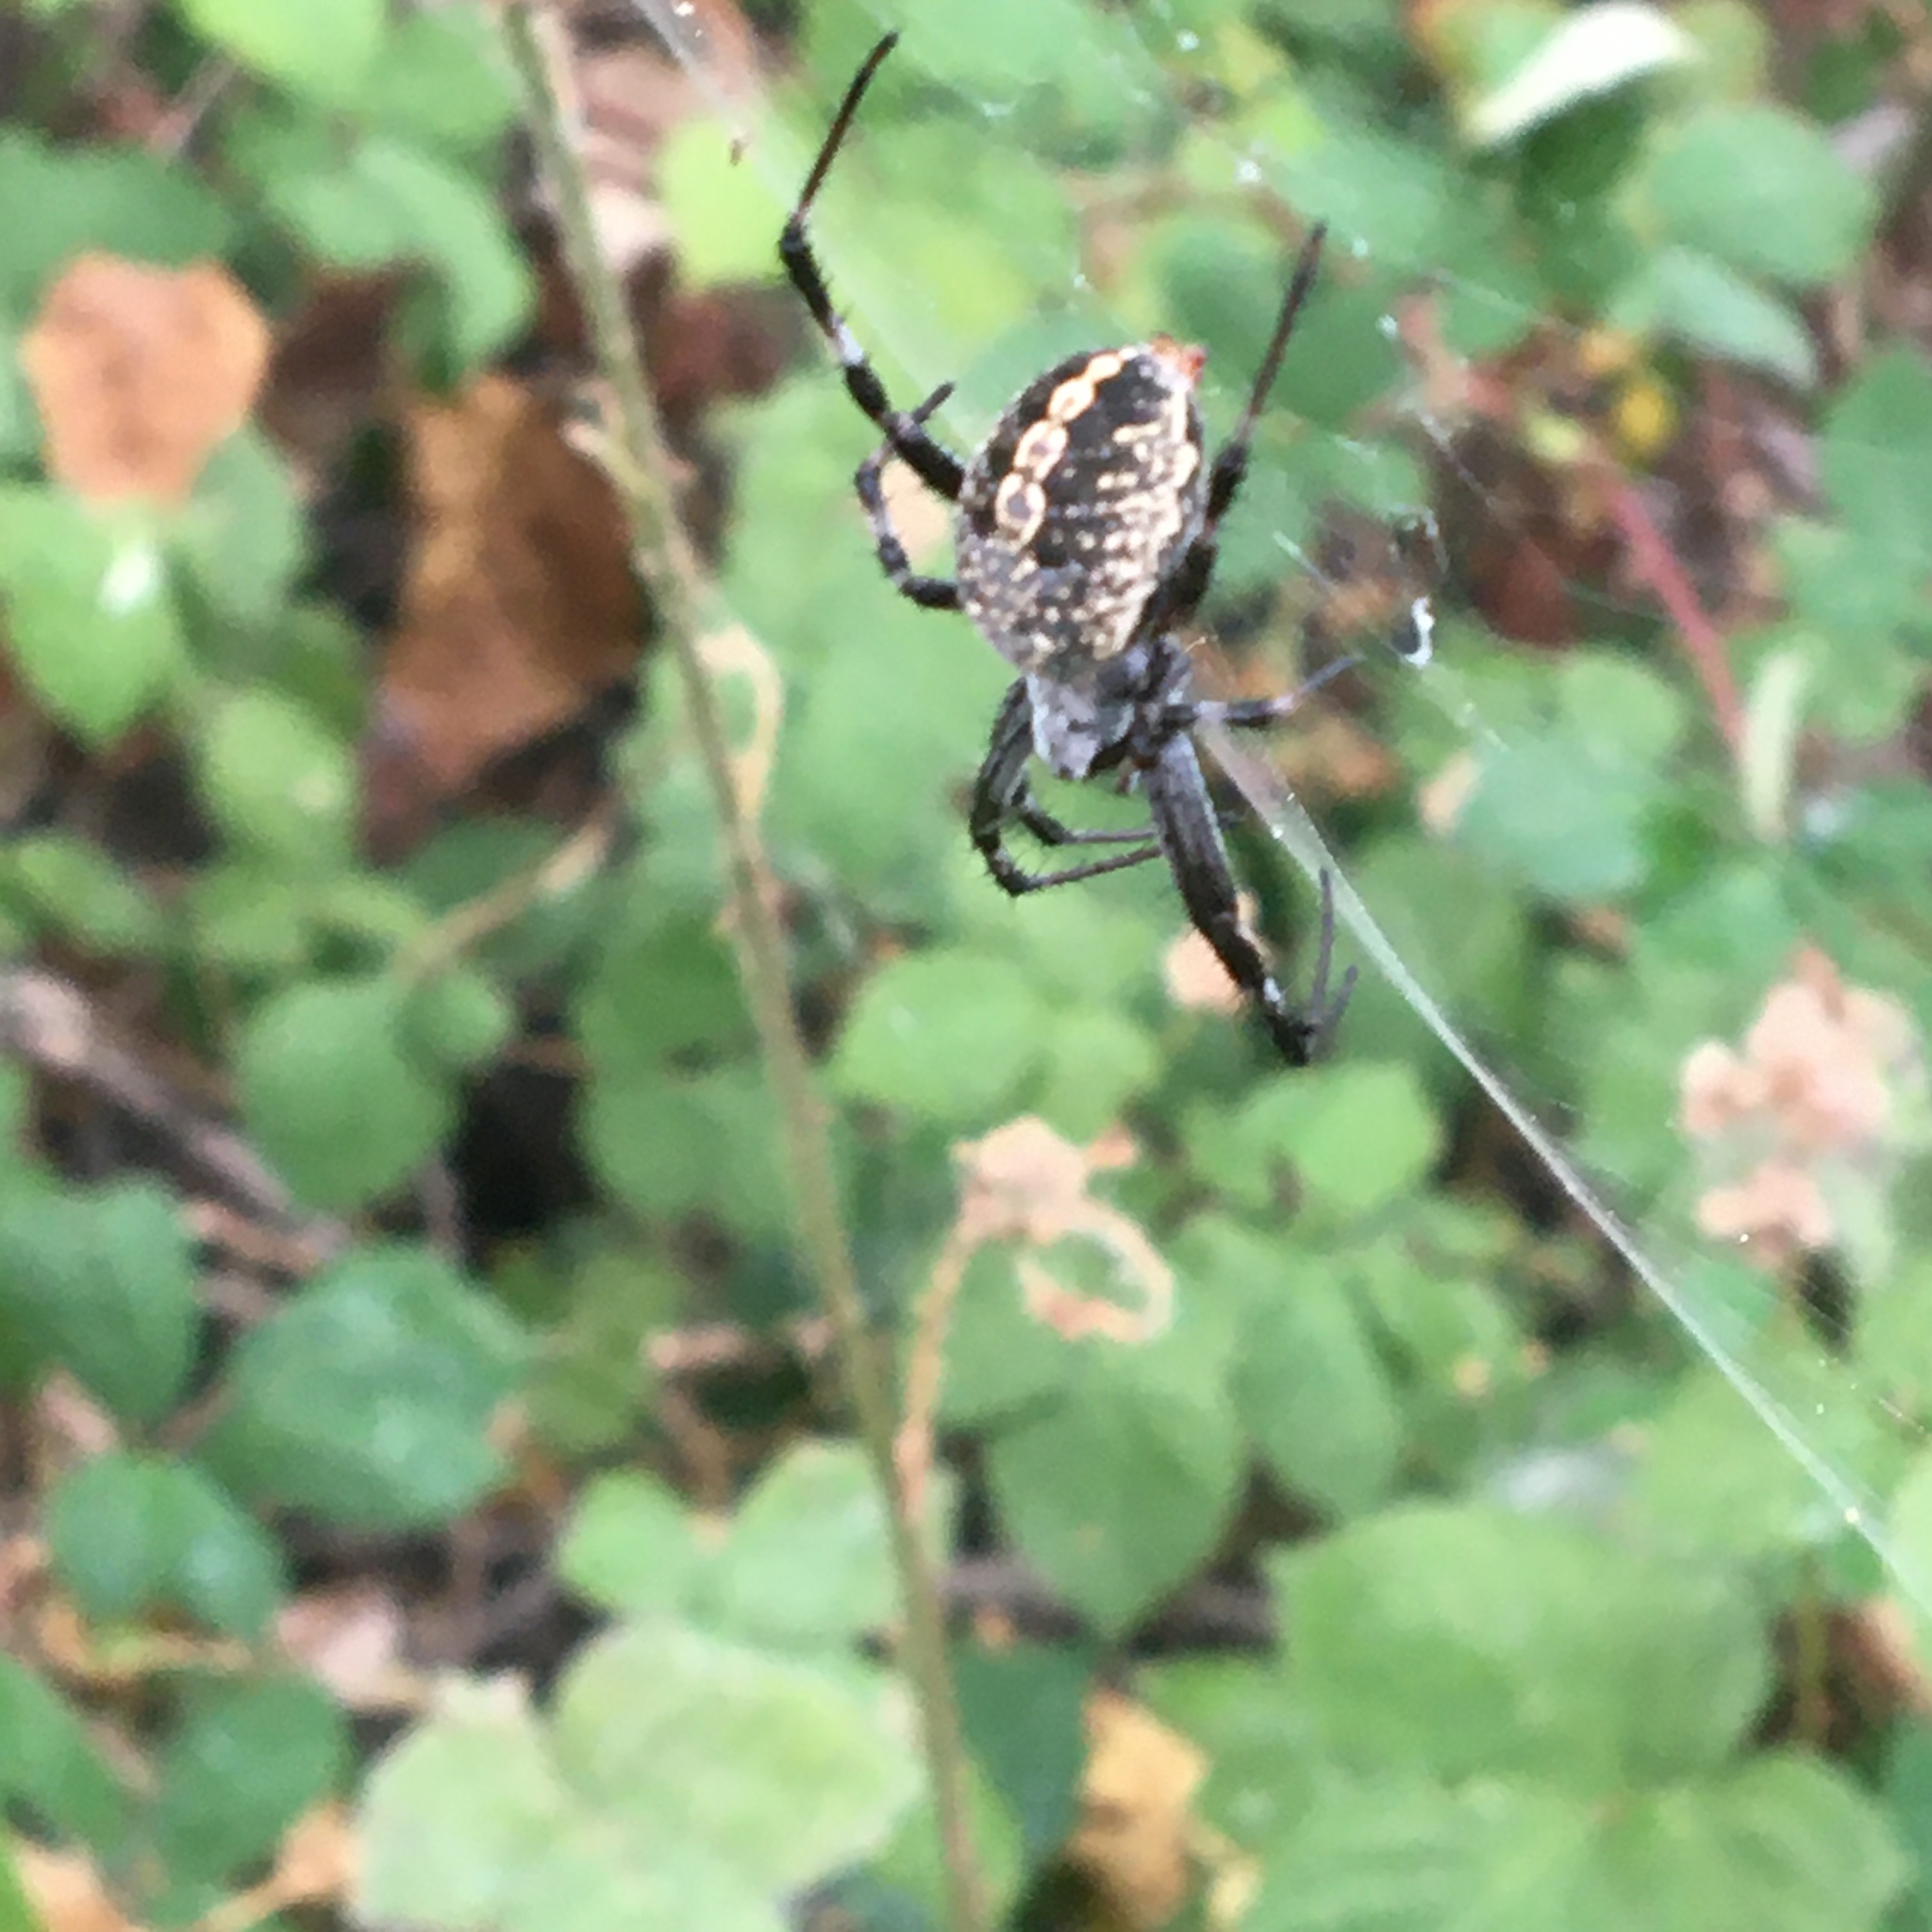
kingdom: Animalia
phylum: Arthropoda
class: Arachnida
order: Araneae
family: Araneidae
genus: Neoscona
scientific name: Neoscona oaxacensis
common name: Orb weavers
